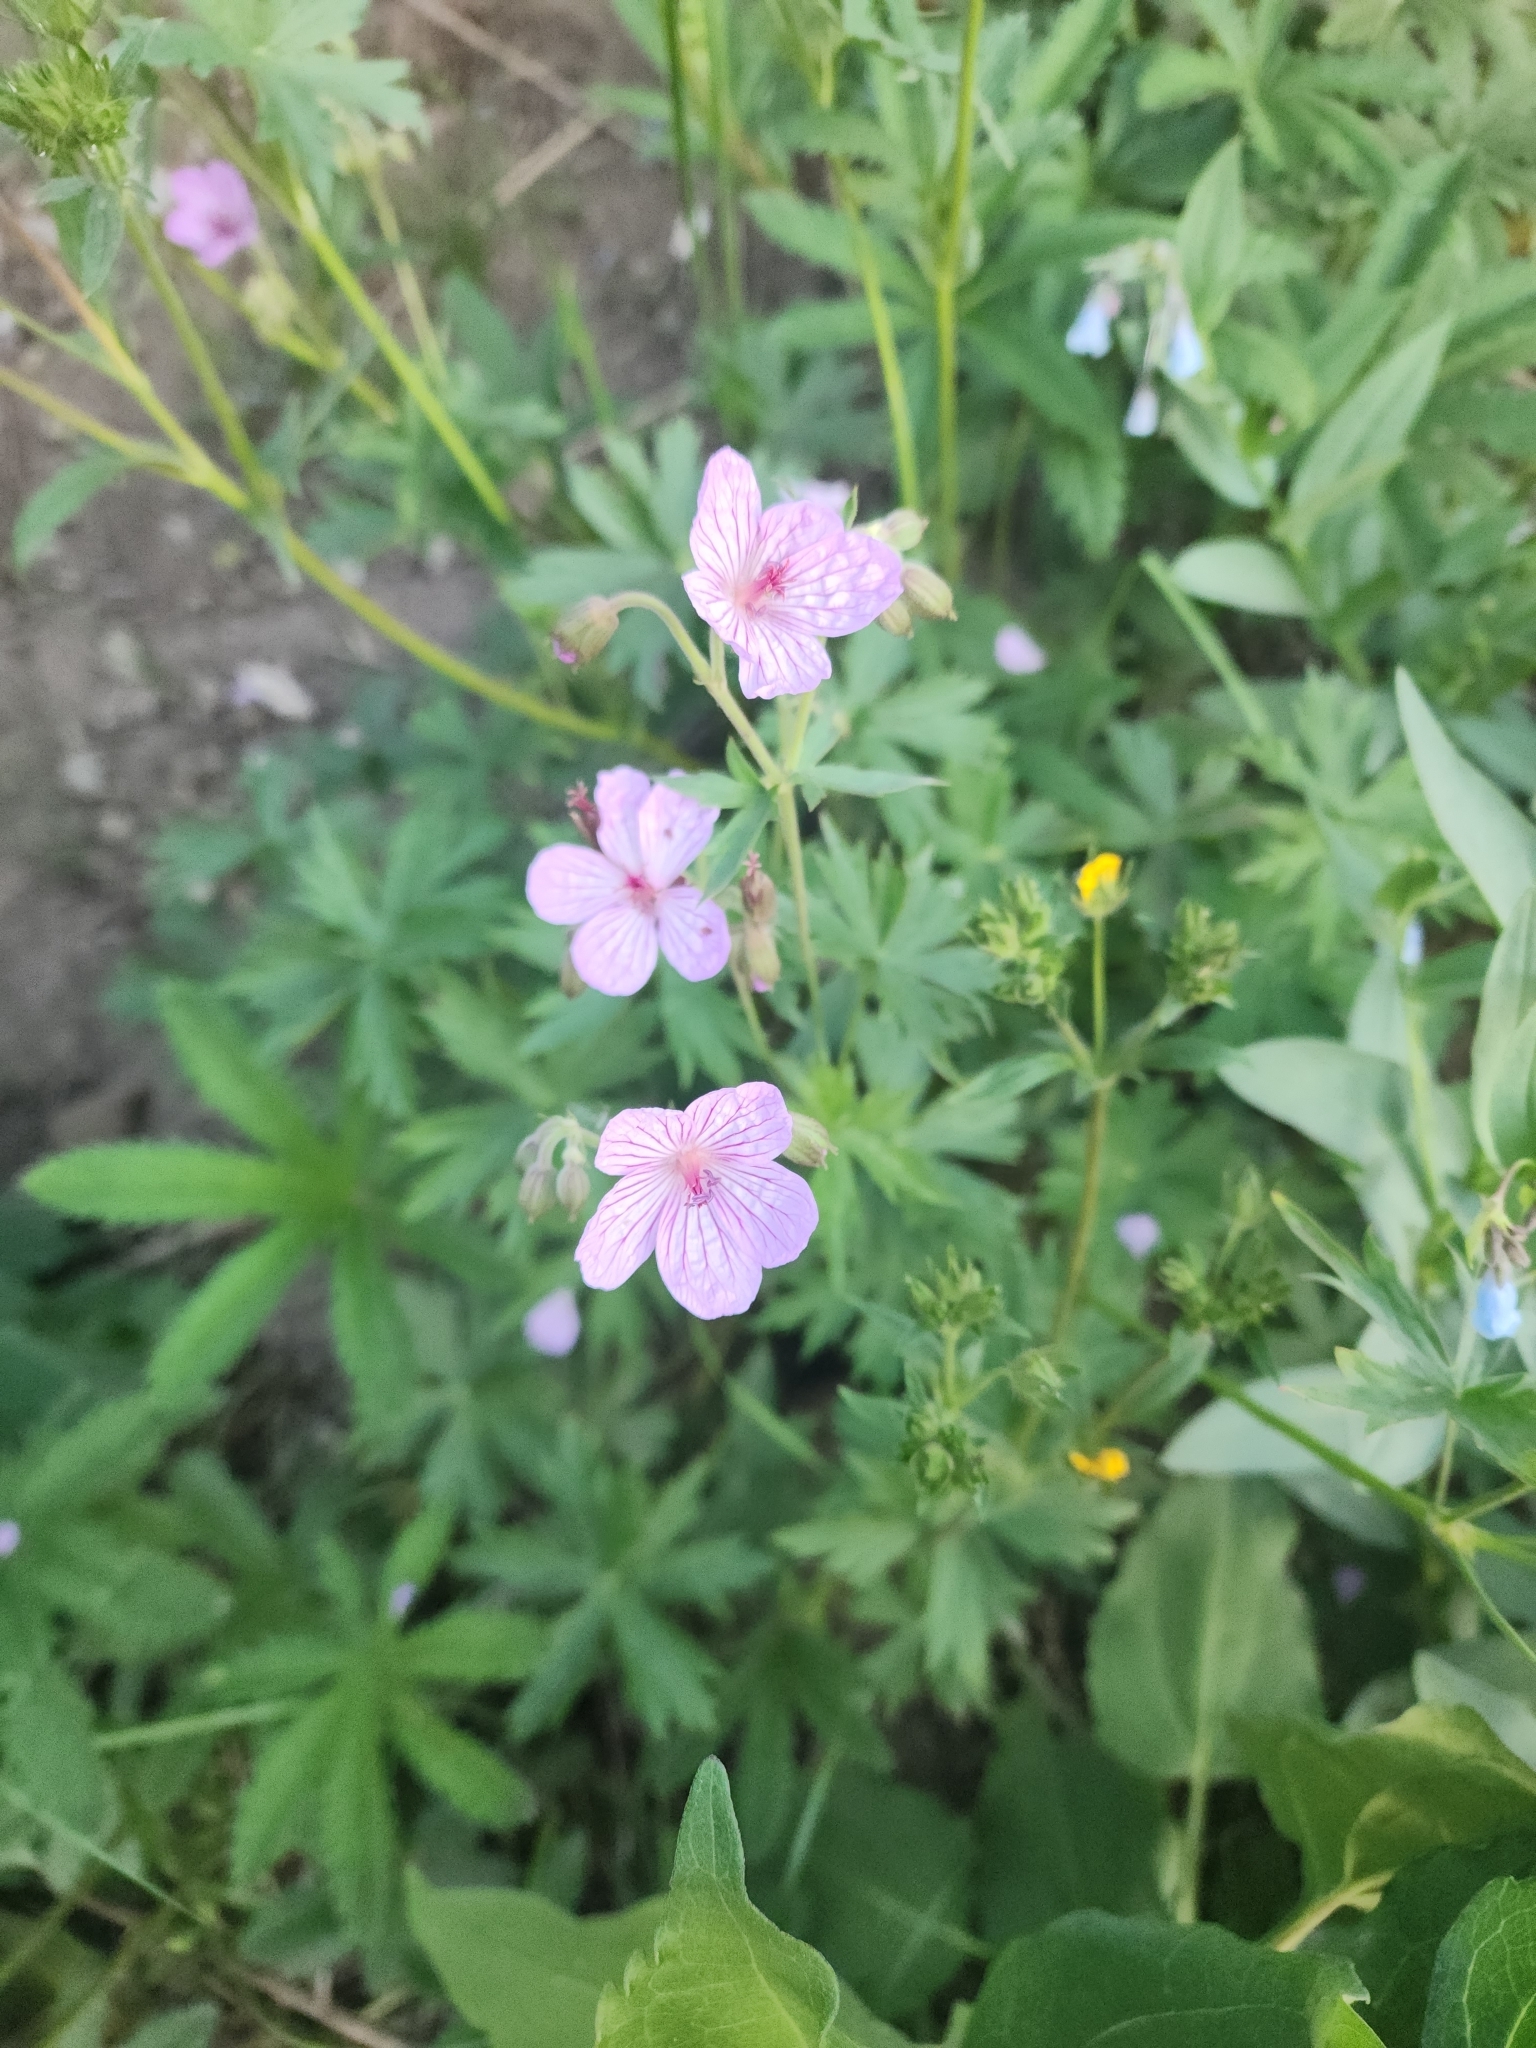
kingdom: Plantae
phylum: Tracheophyta
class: Magnoliopsida
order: Geraniales
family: Geraniaceae
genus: Geranium
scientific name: Geranium viscosissimum
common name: Purple geranium
